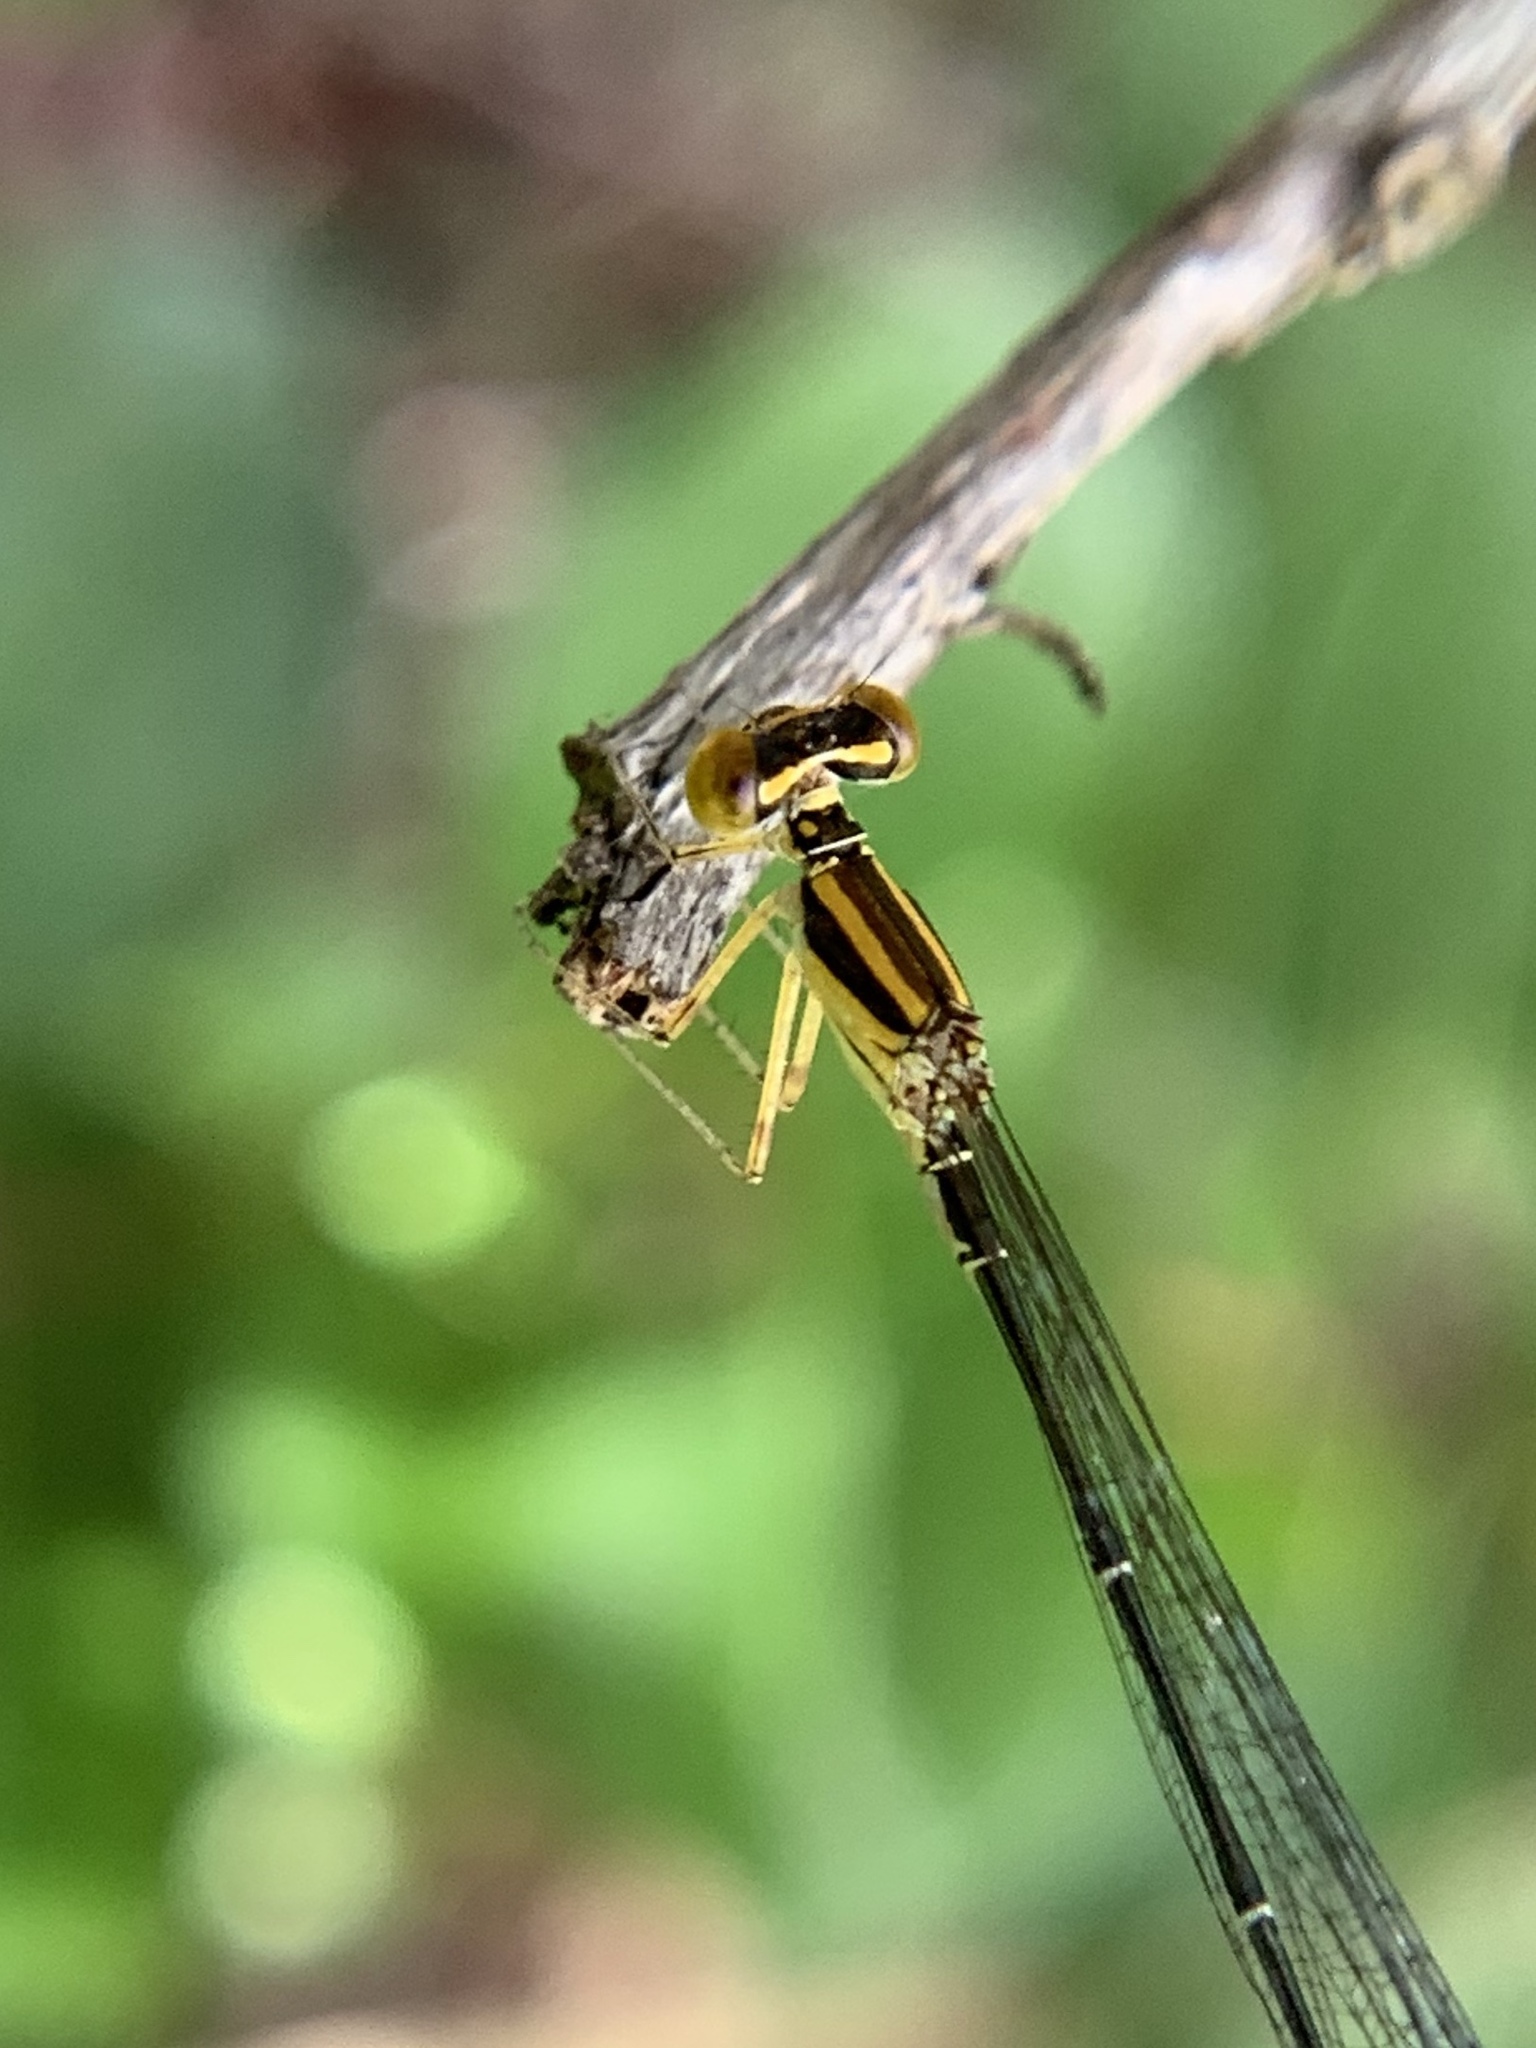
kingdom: Animalia
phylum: Arthropoda
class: Insecta
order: Odonata
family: Coenagrionidae
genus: Enallagma
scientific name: Enallagma sulcatum
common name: Golden bluet
